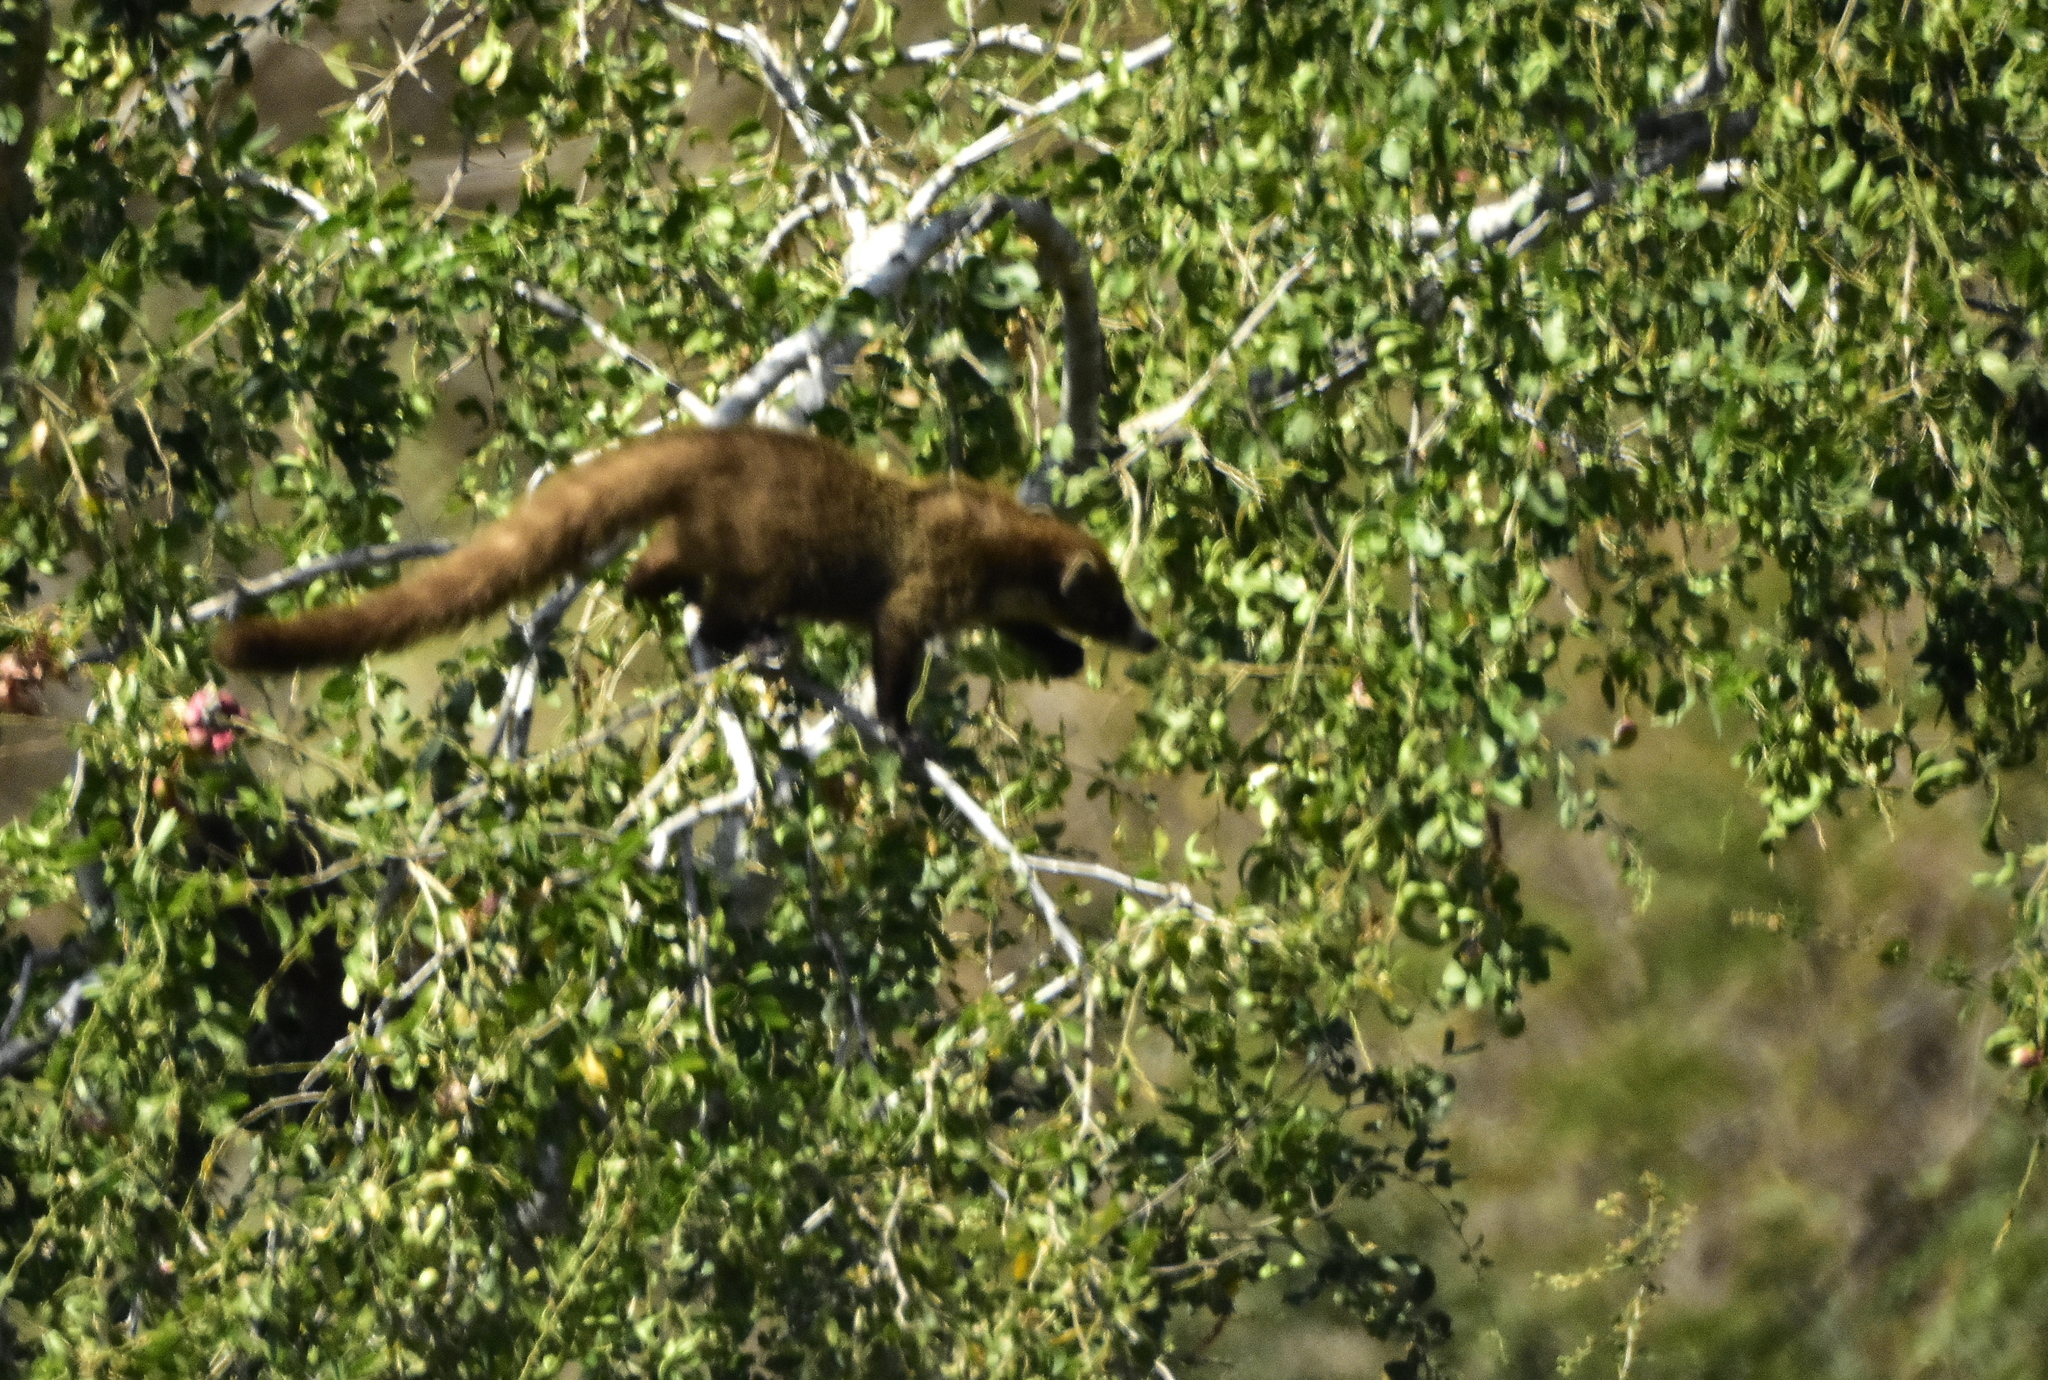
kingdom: Animalia
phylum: Chordata
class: Mammalia
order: Carnivora
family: Procyonidae
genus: Nasua
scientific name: Nasua narica
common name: White-nosed coati
